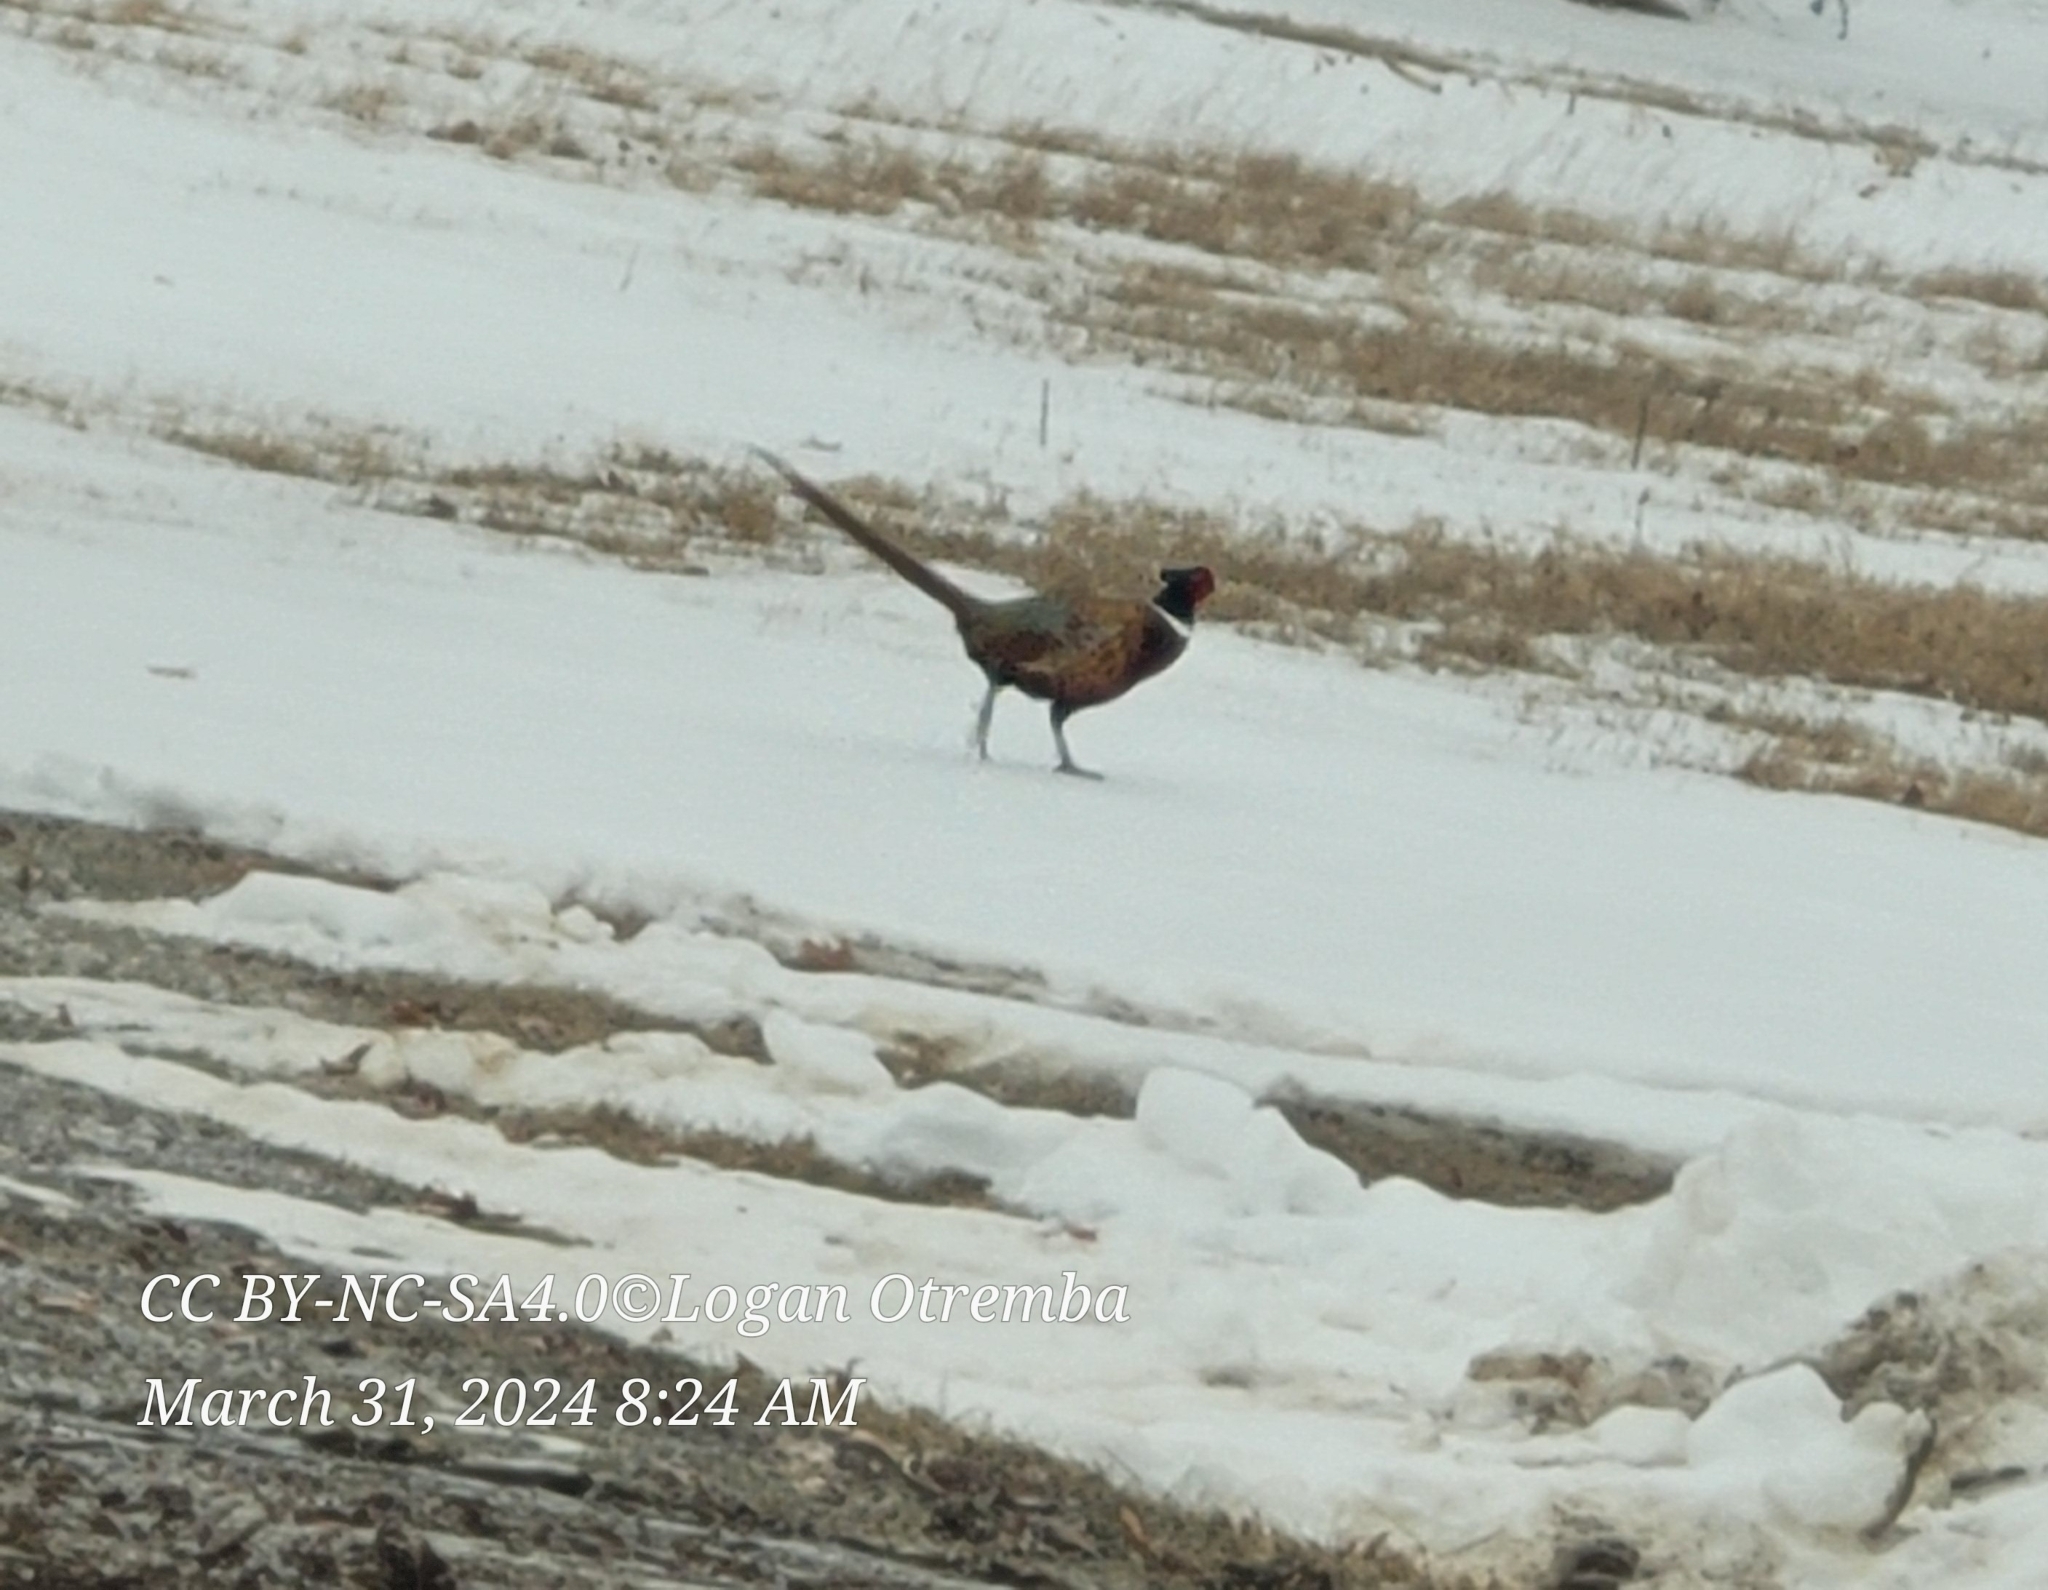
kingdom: Animalia
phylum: Chordata
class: Aves
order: Galliformes
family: Phasianidae
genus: Phasianus
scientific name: Phasianus colchicus
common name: Common pheasant
